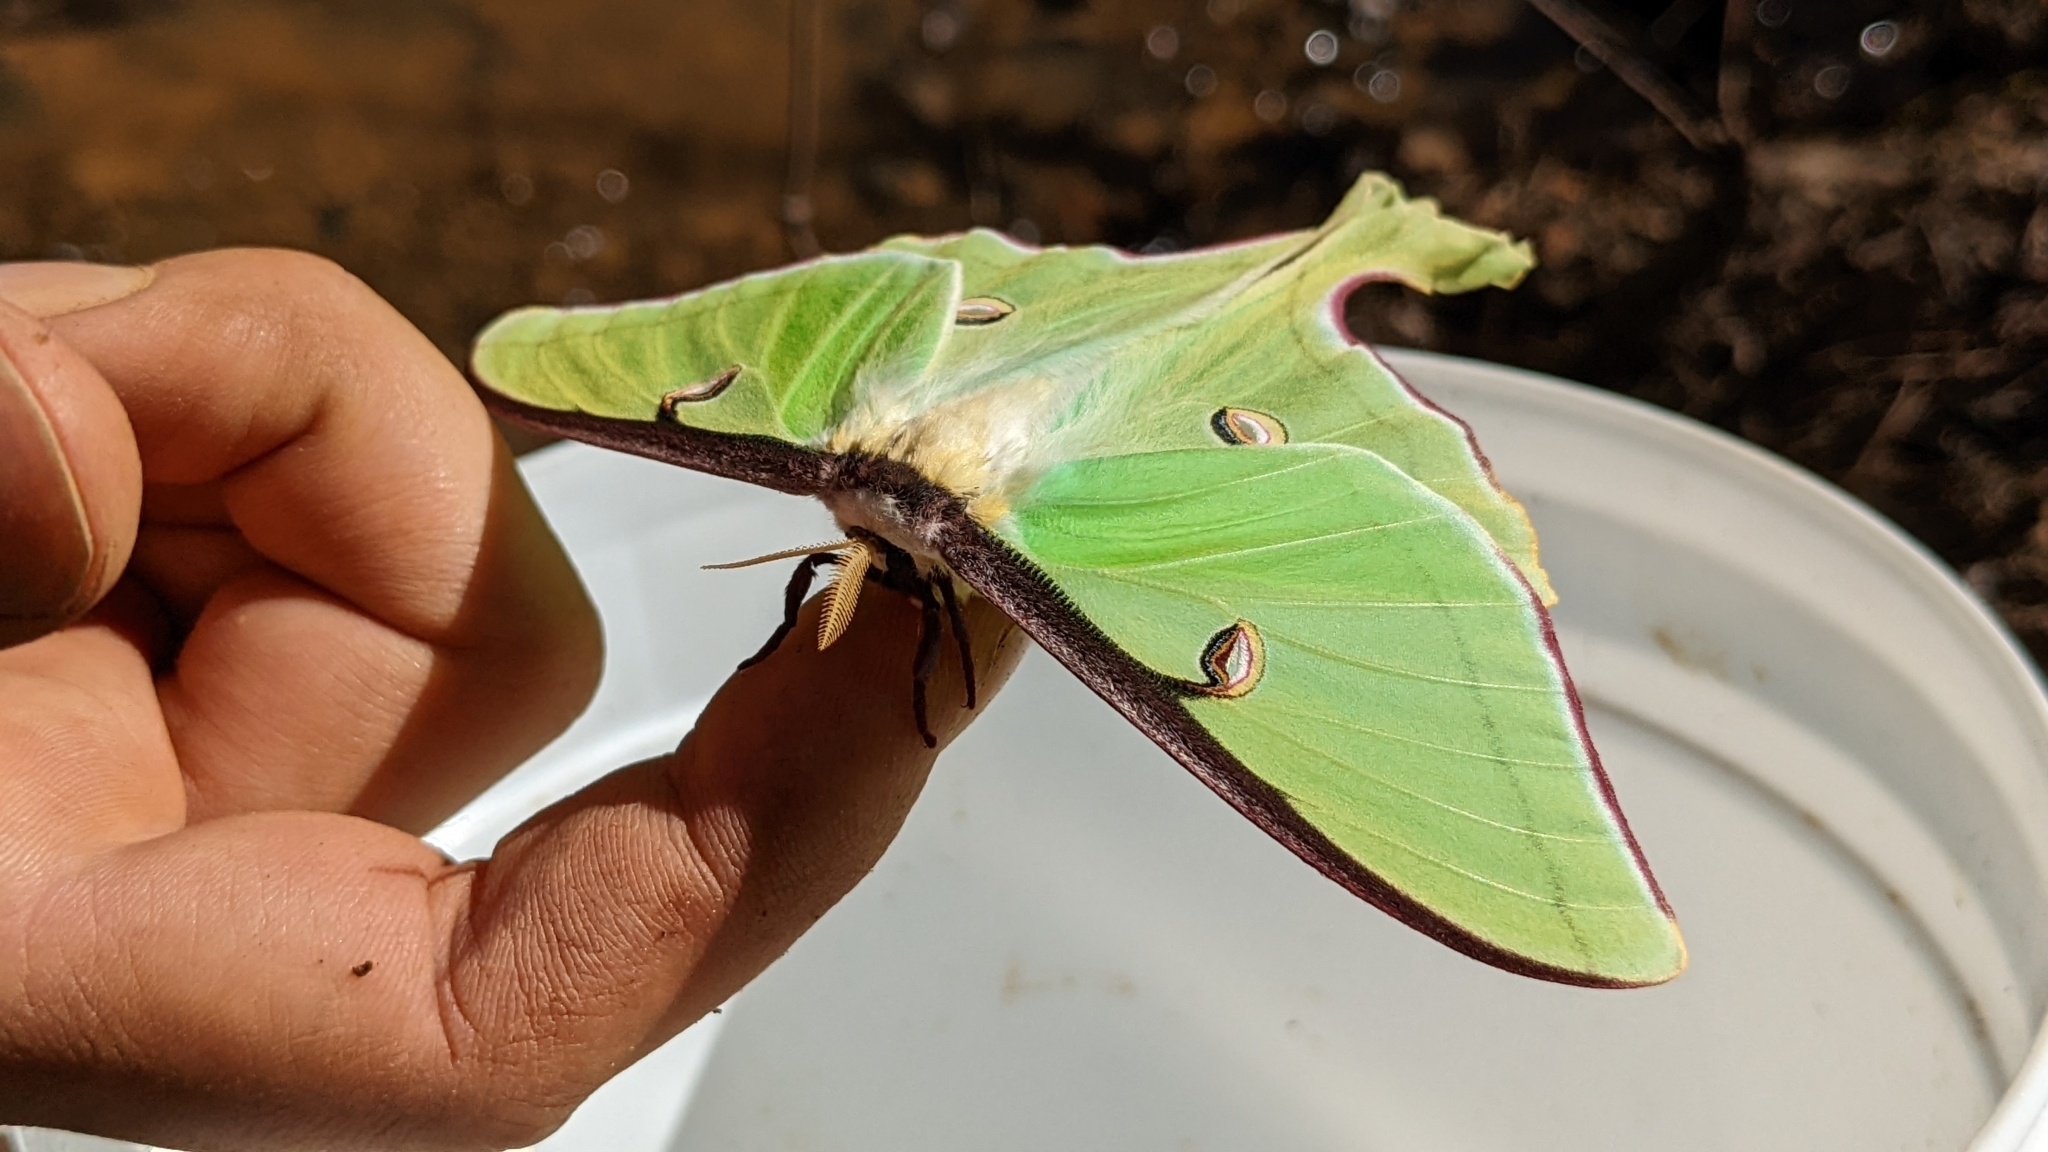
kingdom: Animalia
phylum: Arthropoda
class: Insecta
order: Lepidoptera
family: Saturniidae
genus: Actias
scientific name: Actias luna
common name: Luna moth
